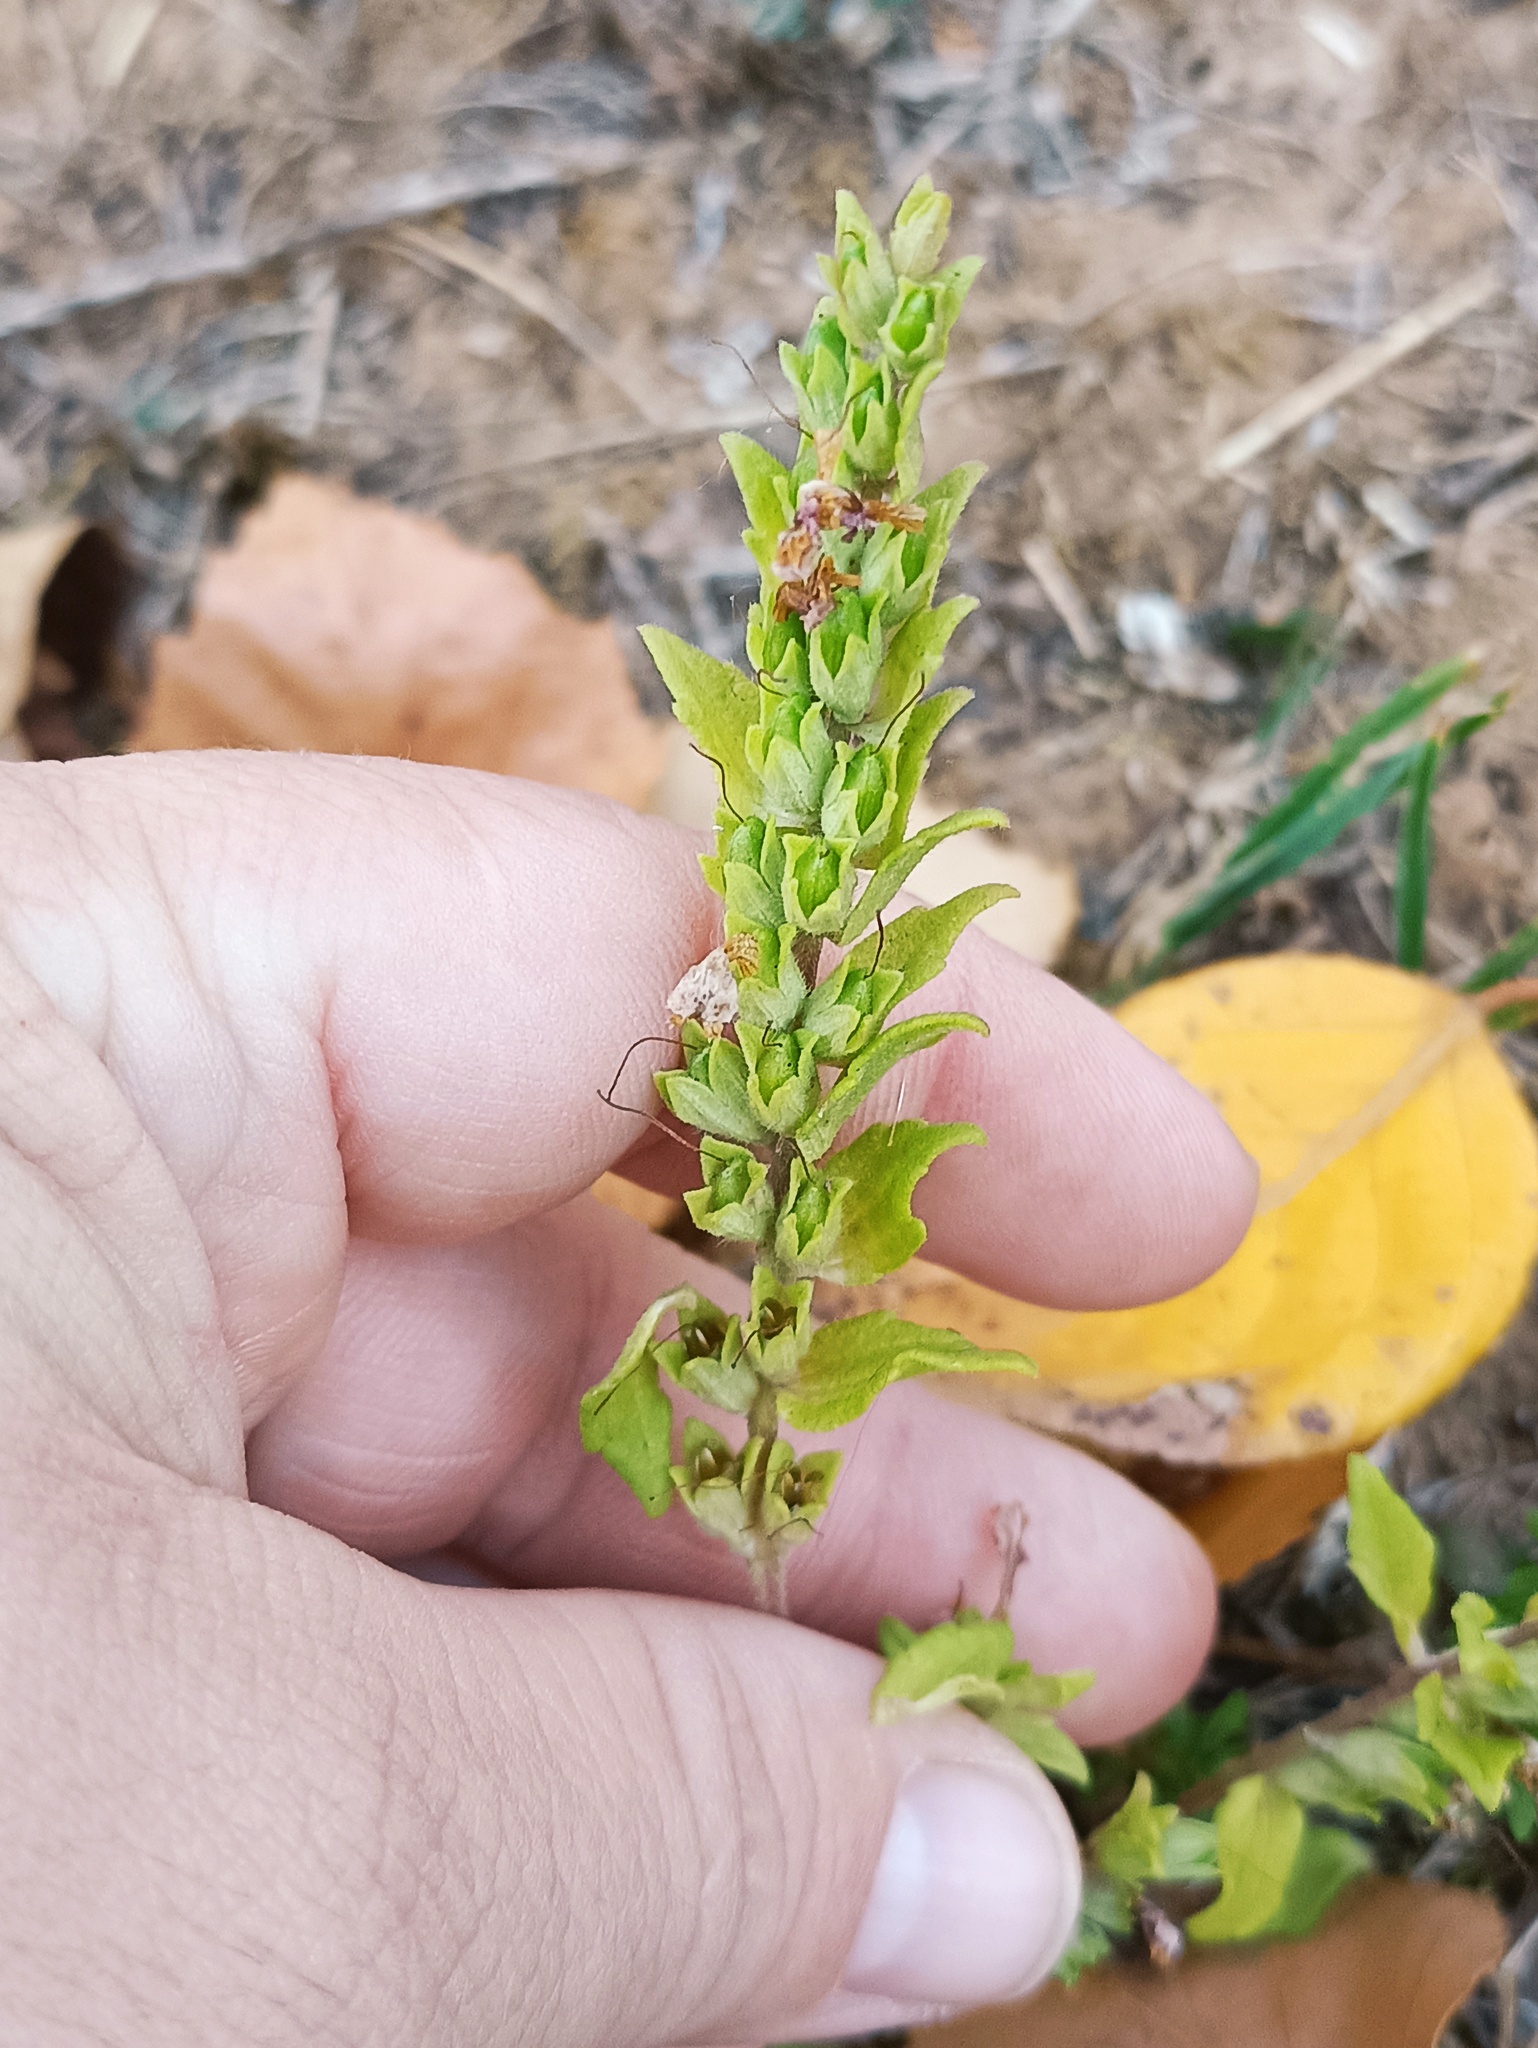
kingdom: Plantae
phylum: Tracheophyta
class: Magnoliopsida
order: Lamiales
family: Orobanchaceae
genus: Odontites
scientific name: Odontites vulgaris
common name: Broomrape
